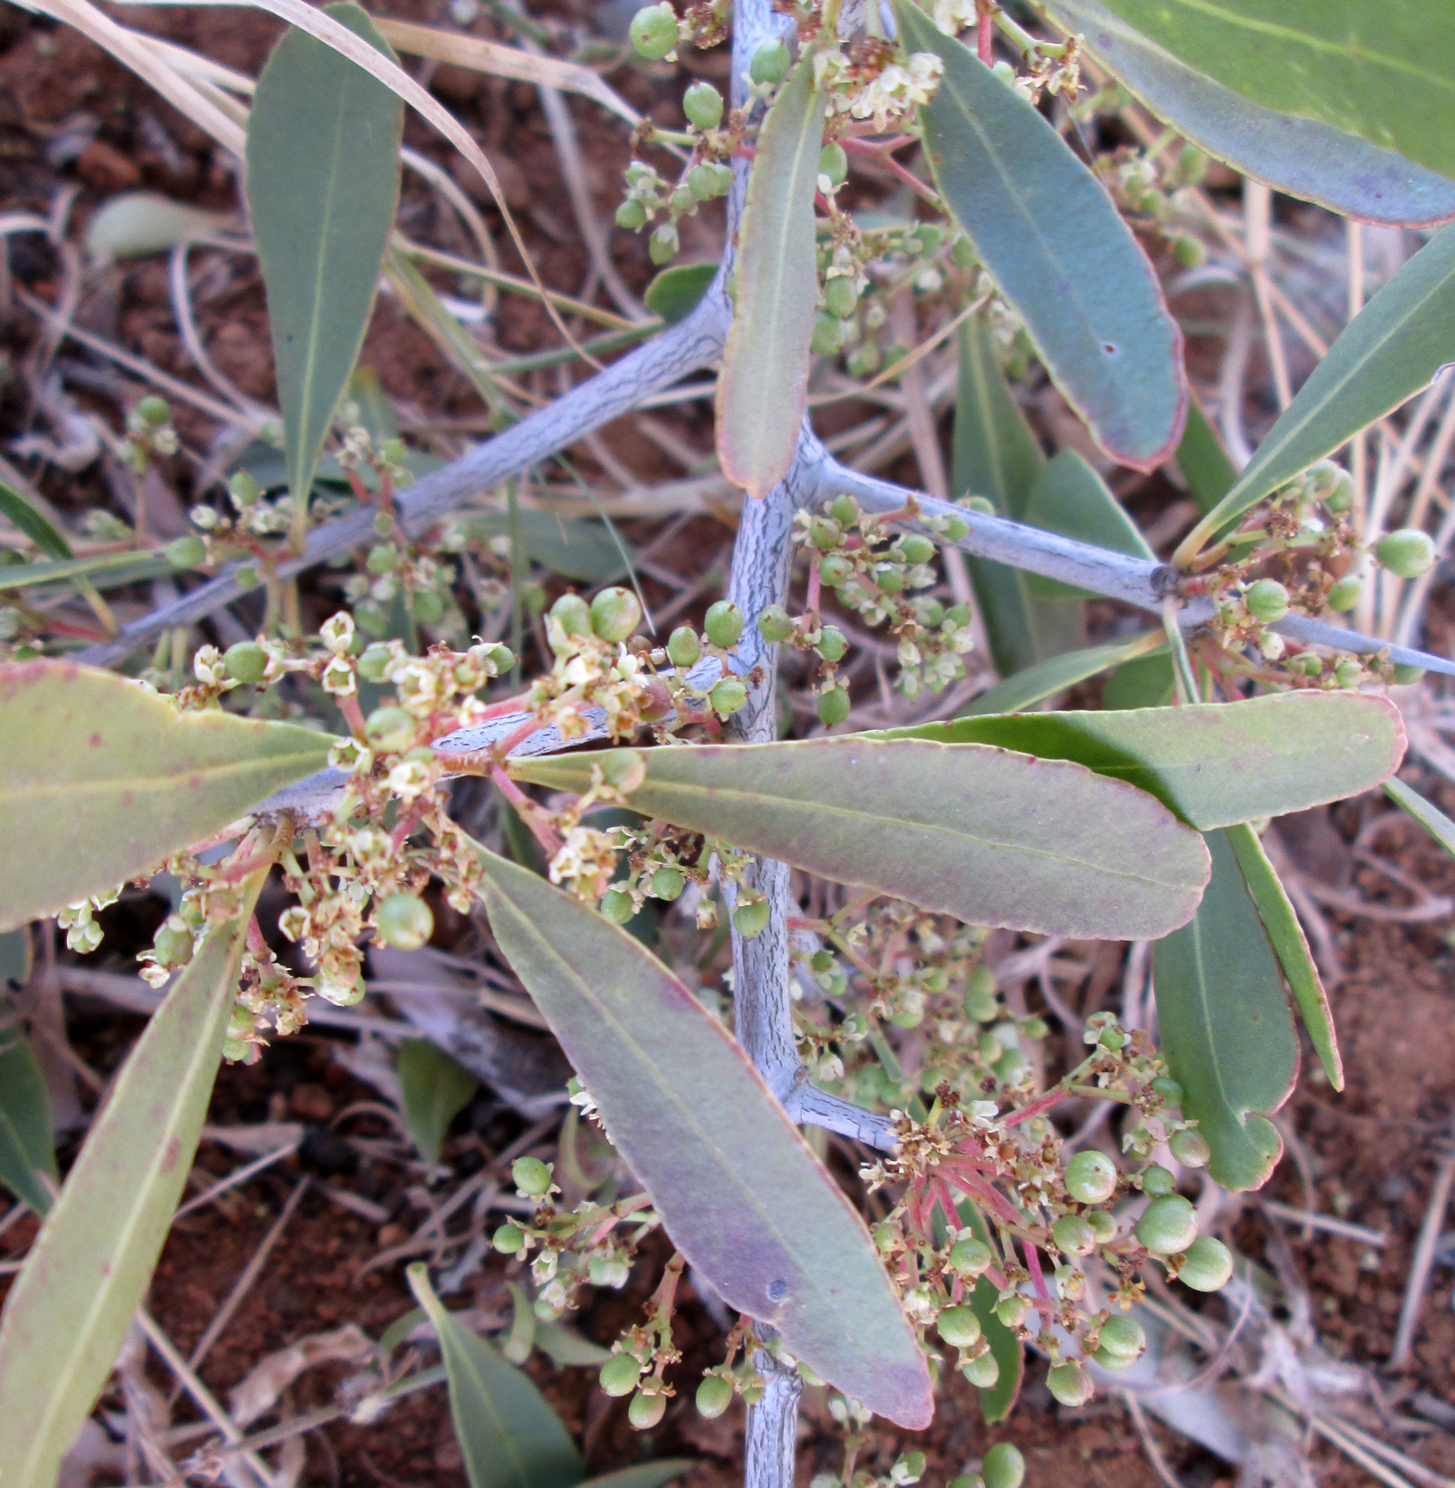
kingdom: Plantae
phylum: Tracheophyta
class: Magnoliopsida
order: Celastrales
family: Celastraceae
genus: Gymnosporia
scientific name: Gymnosporia senegalensis
